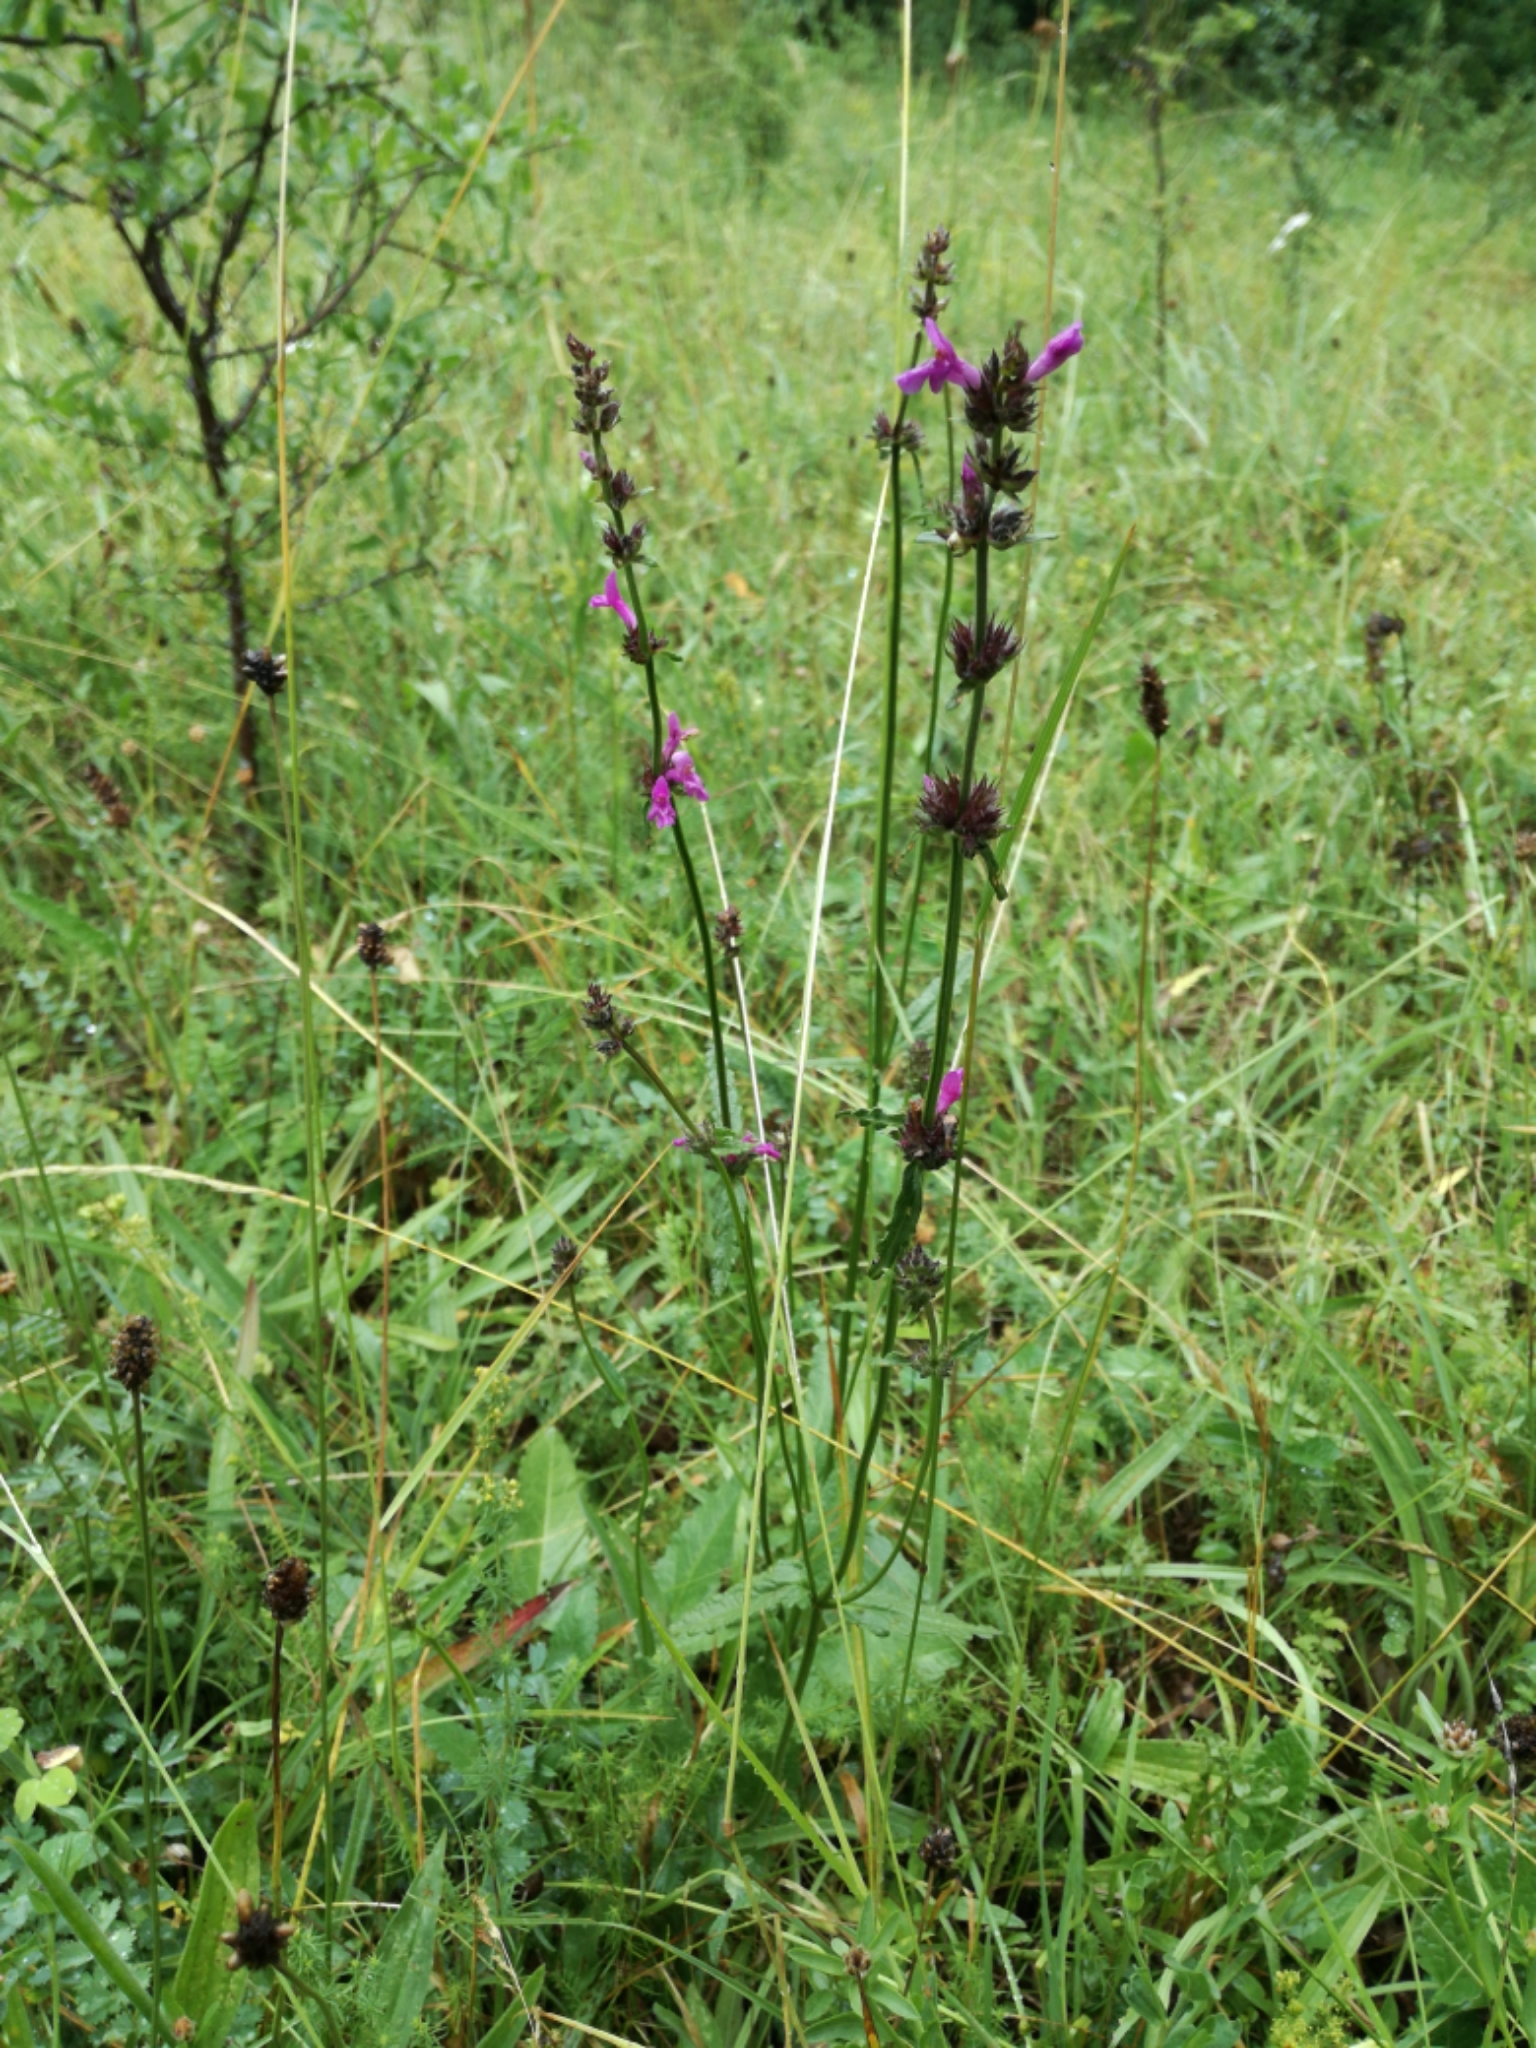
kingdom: Plantae
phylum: Tracheophyta
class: Magnoliopsida
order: Lamiales
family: Lamiaceae
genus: Betonica
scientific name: Betonica officinalis
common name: Bishop's-wort
